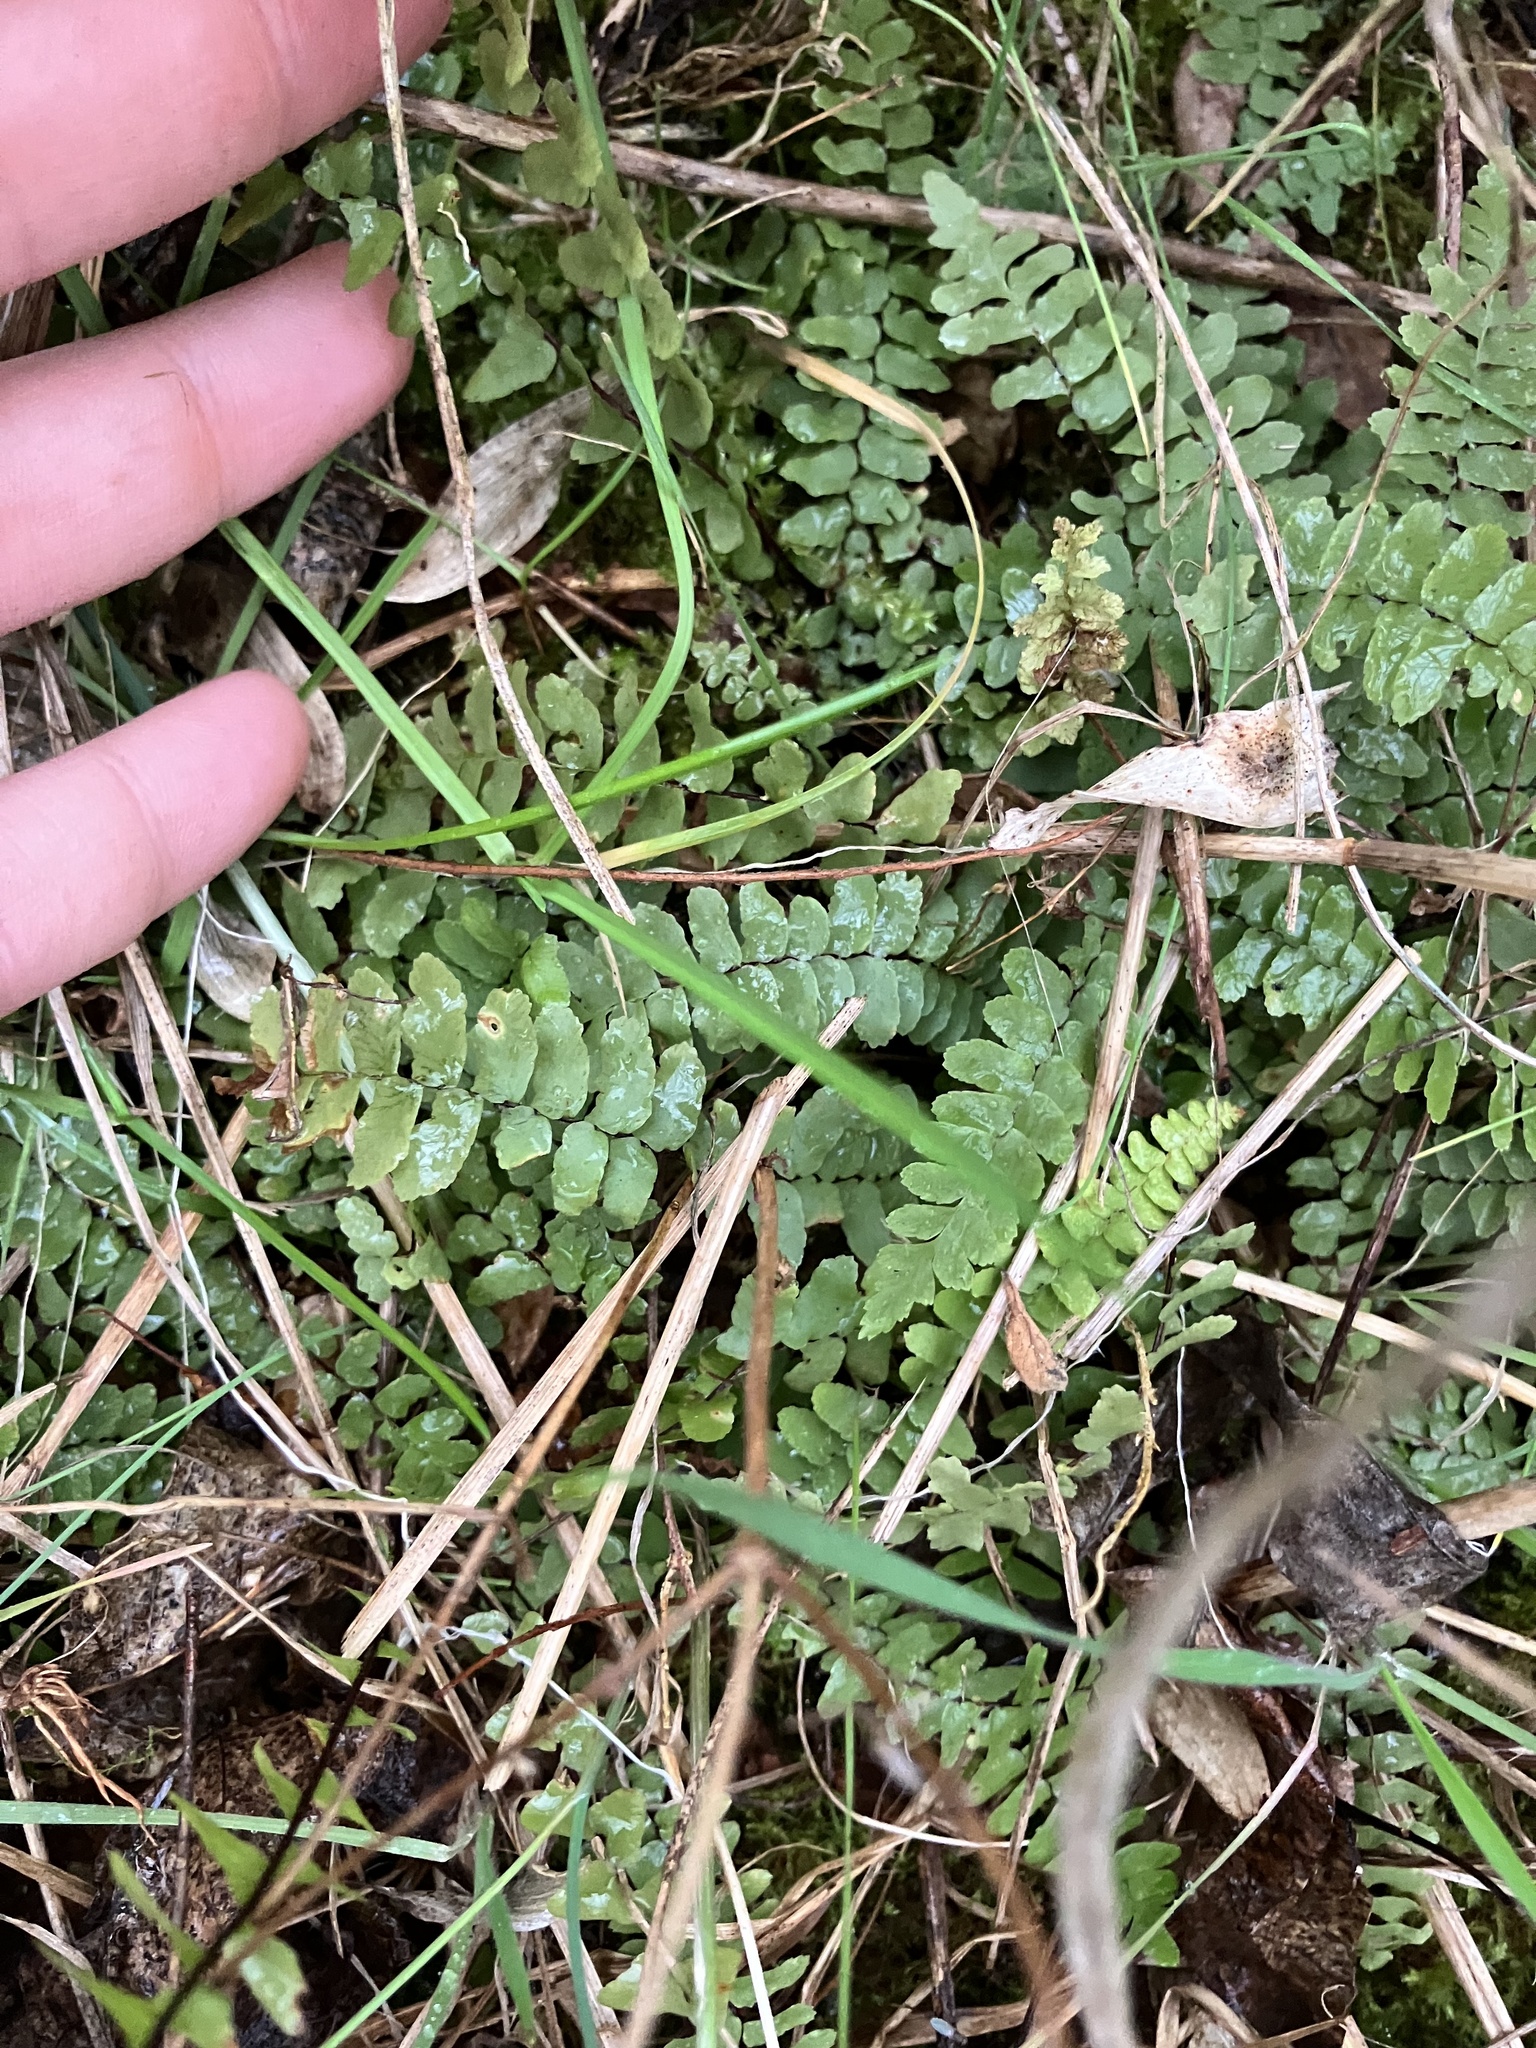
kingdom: Plantae
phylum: Tracheophyta
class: Polypodiopsida
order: Polypodiales
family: Aspleniaceae
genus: Asplenium
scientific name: Asplenium platyneuron
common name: Ebony spleenwort
